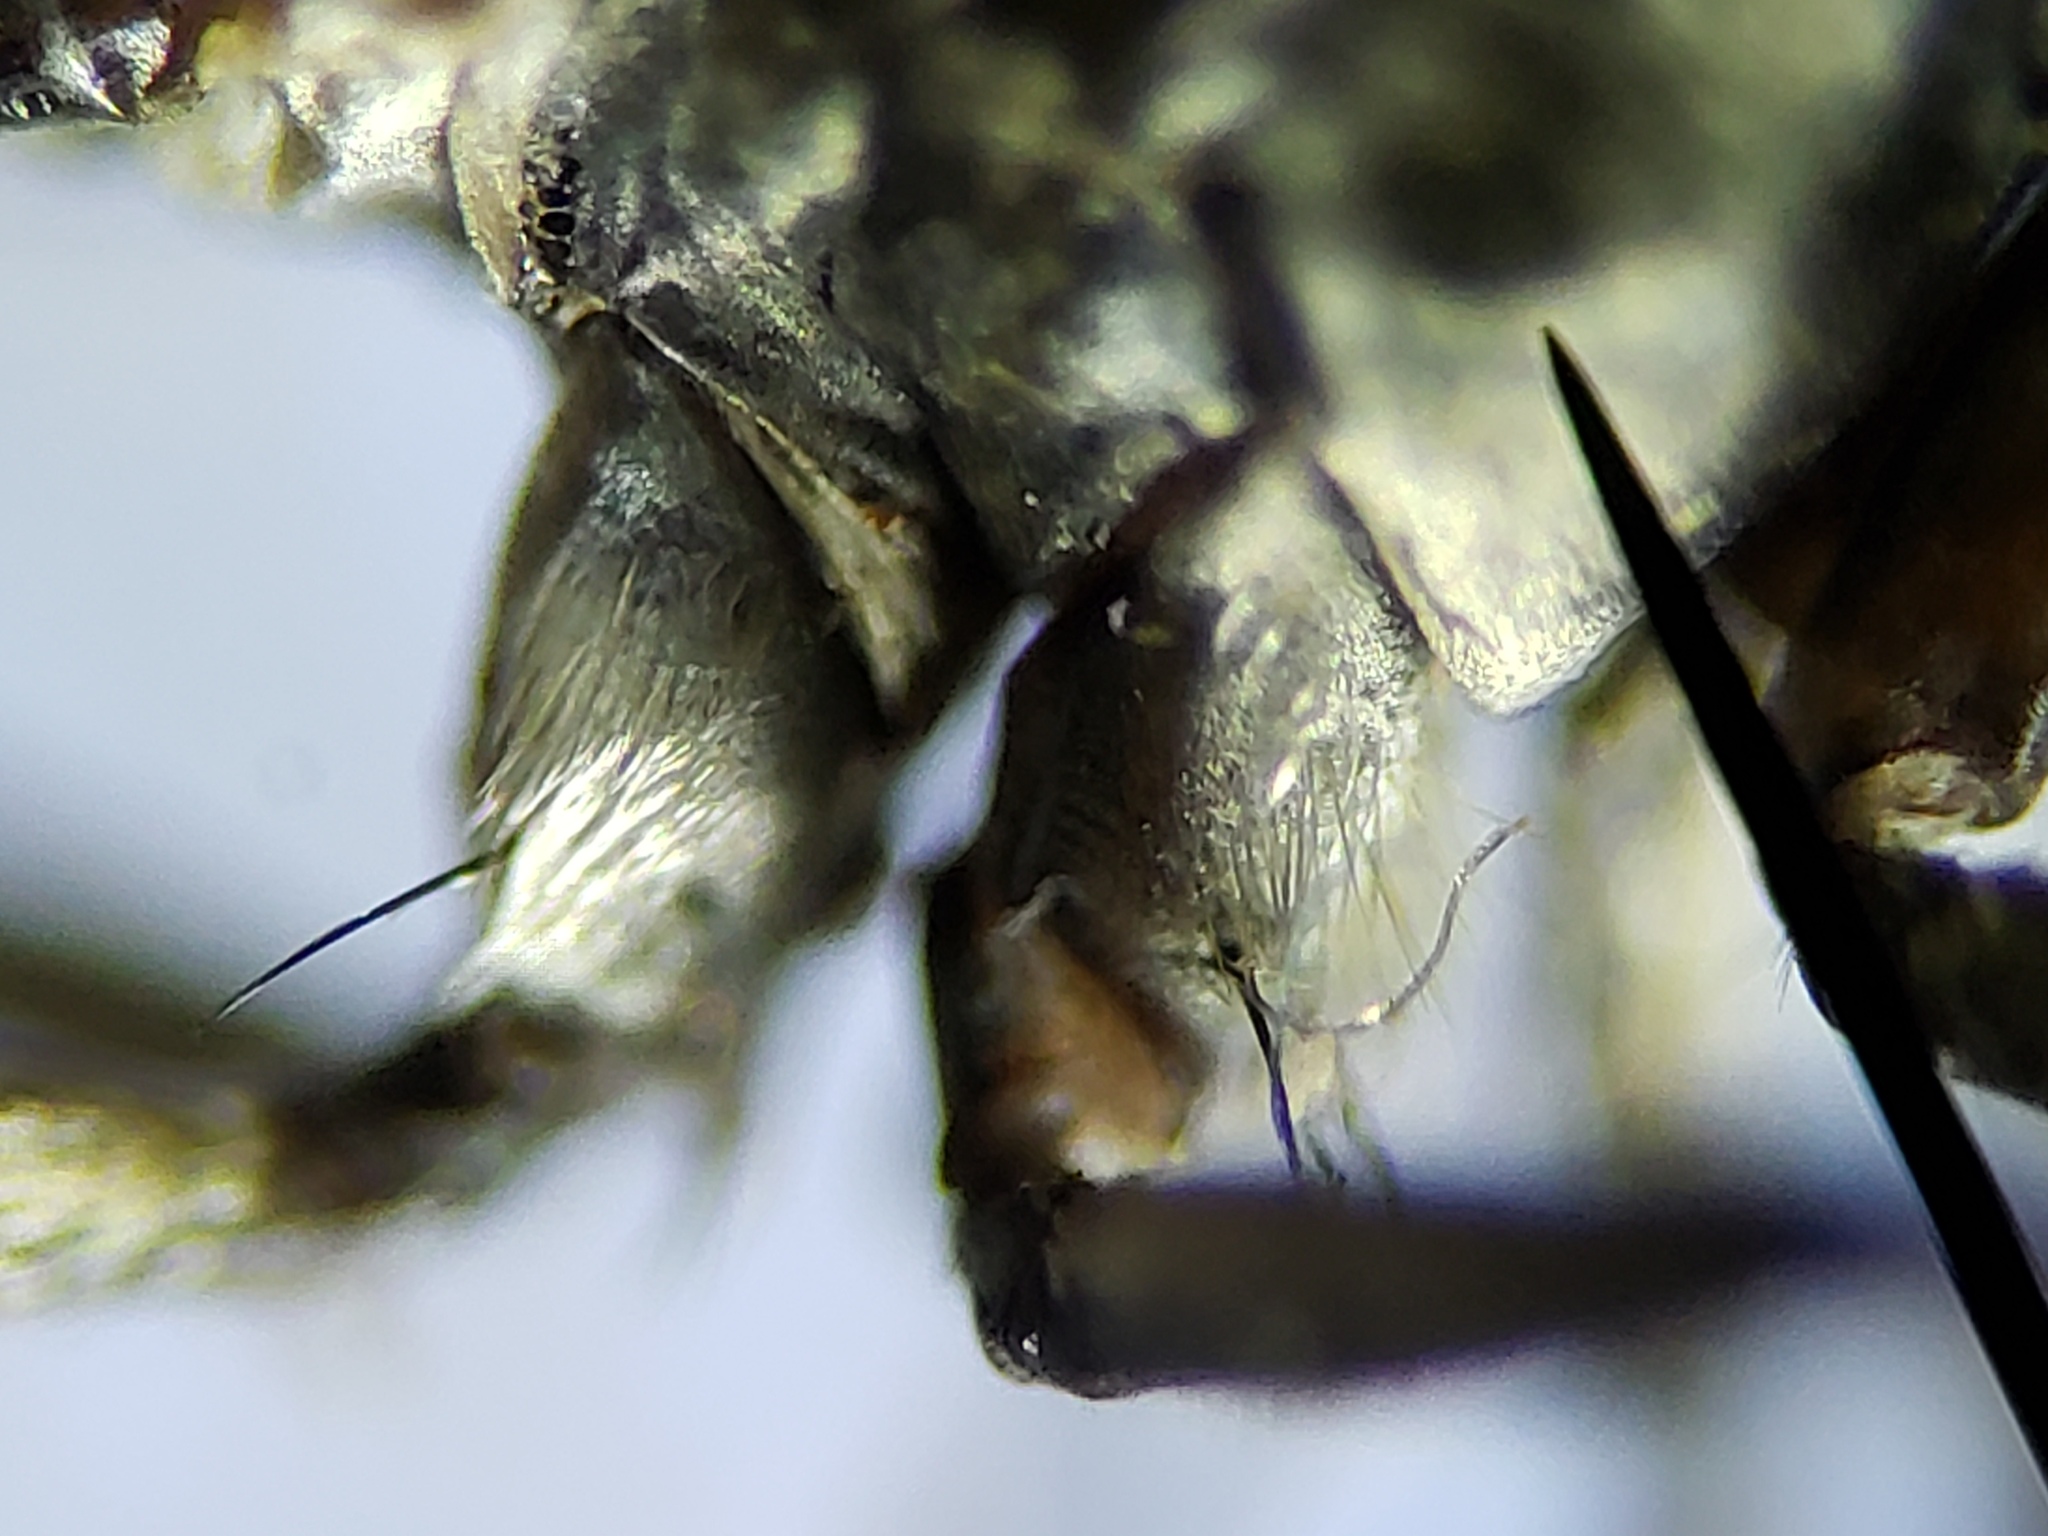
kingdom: Animalia
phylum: Arthropoda
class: Insecta
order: Diptera
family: Therevidae
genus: Penniverpa
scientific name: Penniverpa festina
